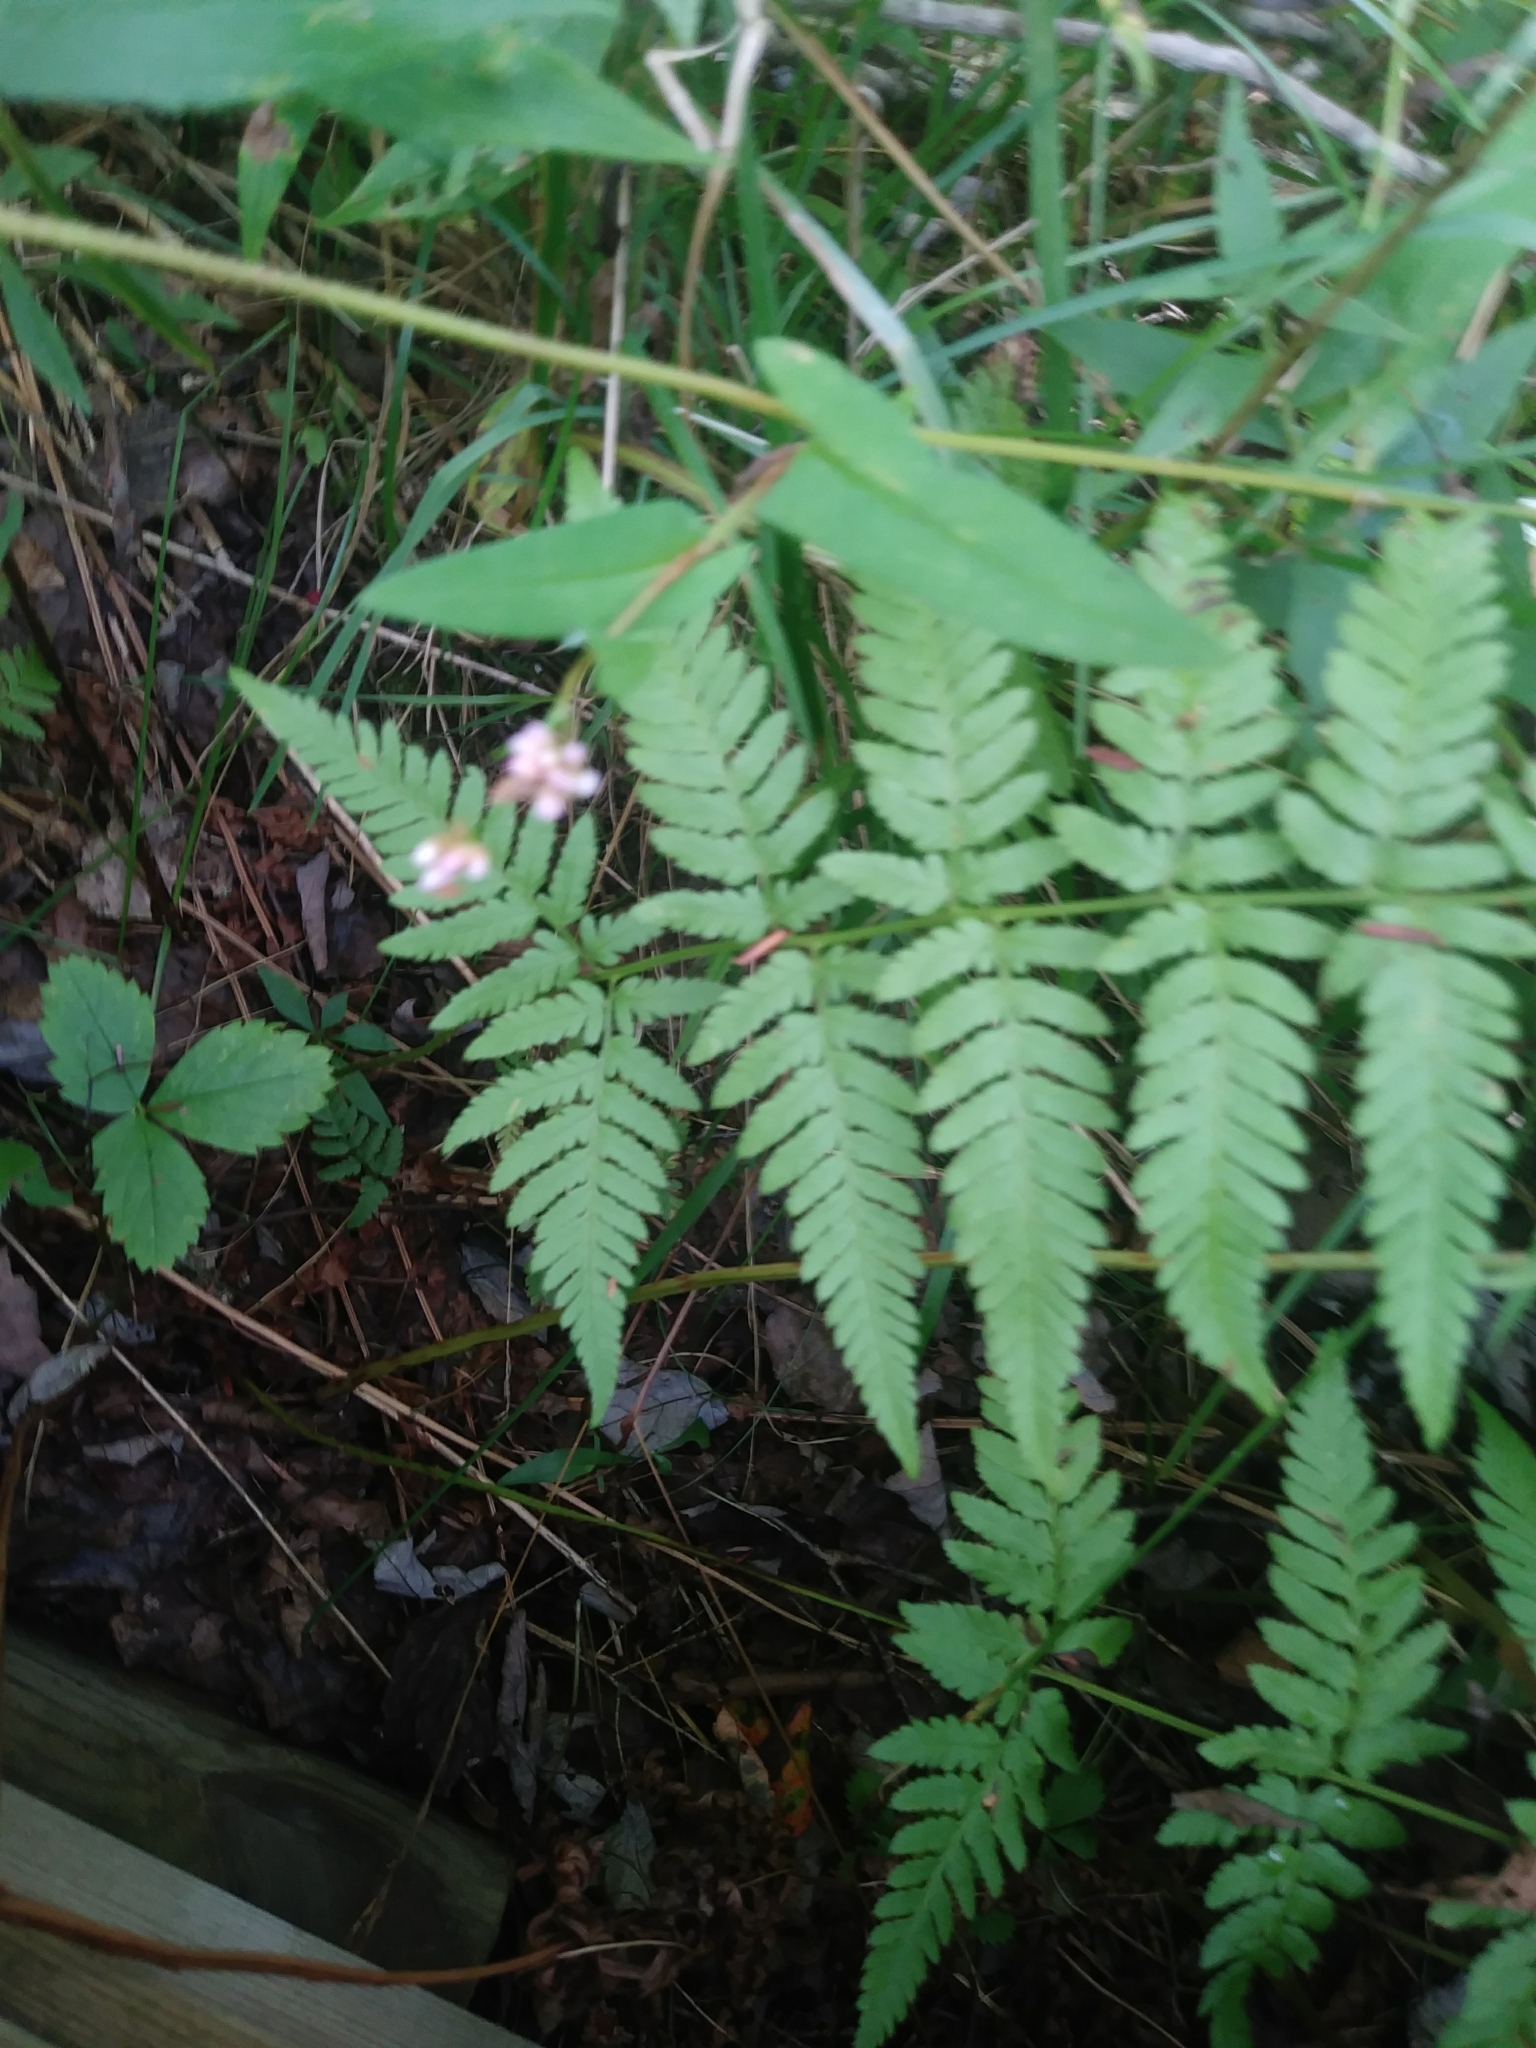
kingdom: Plantae
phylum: Tracheophyta
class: Polypodiopsida
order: Polypodiales
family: Dryopteridaceae
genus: Dryopteris
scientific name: Dryopteris carthusiana
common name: Narrow buckler-fern
